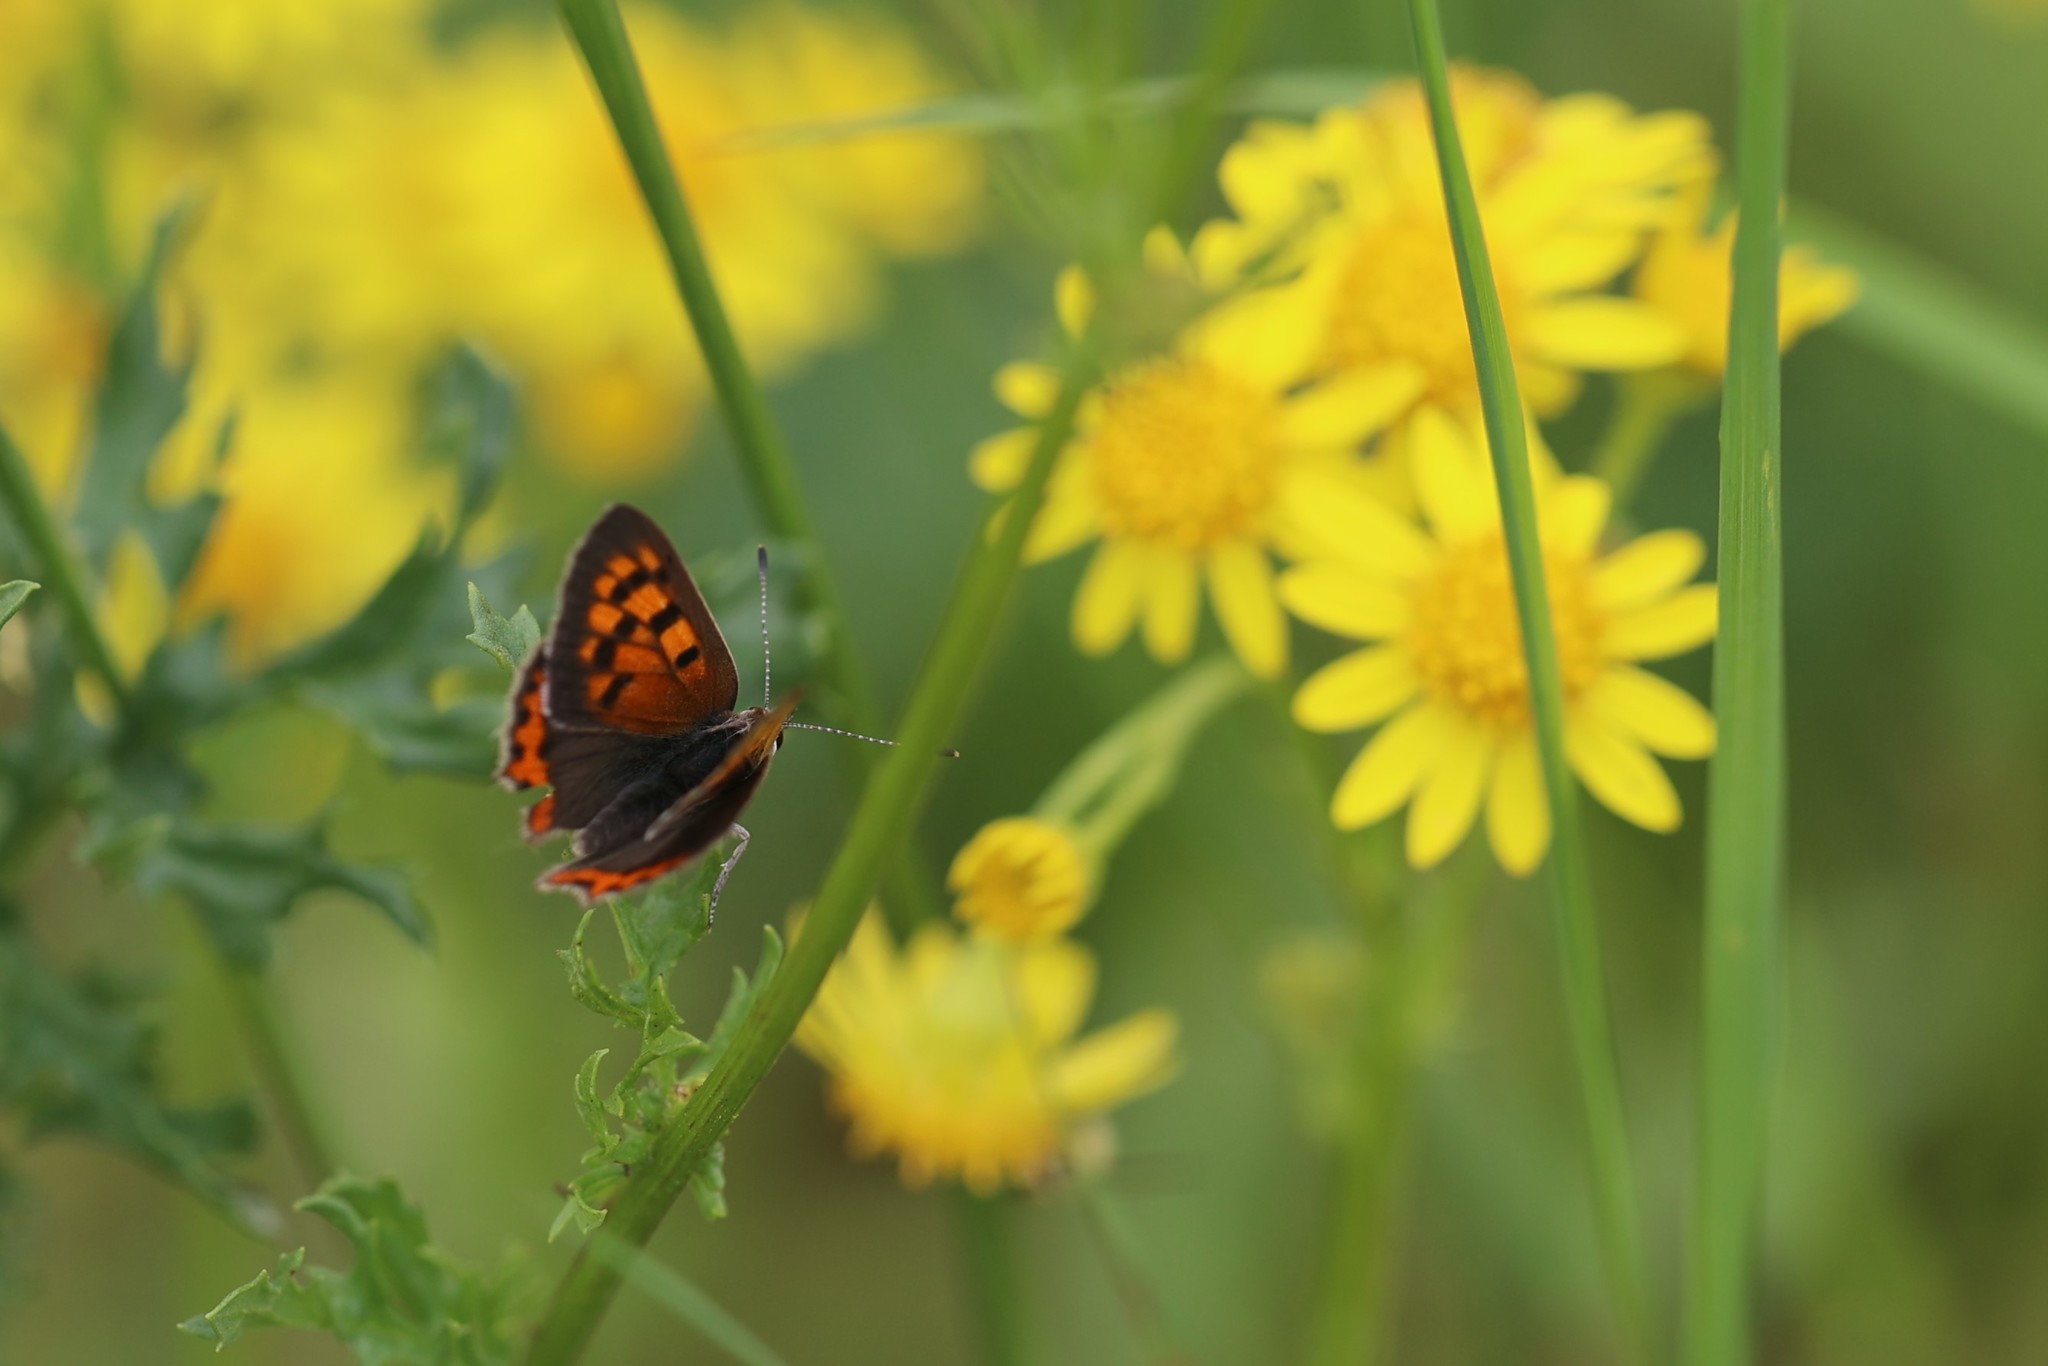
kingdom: Animalia
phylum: Arthropoda
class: Insecta
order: Lepidoptera
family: Lycaenidae
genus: Lycaena
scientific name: Lycaena phlaeas
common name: Small copper
